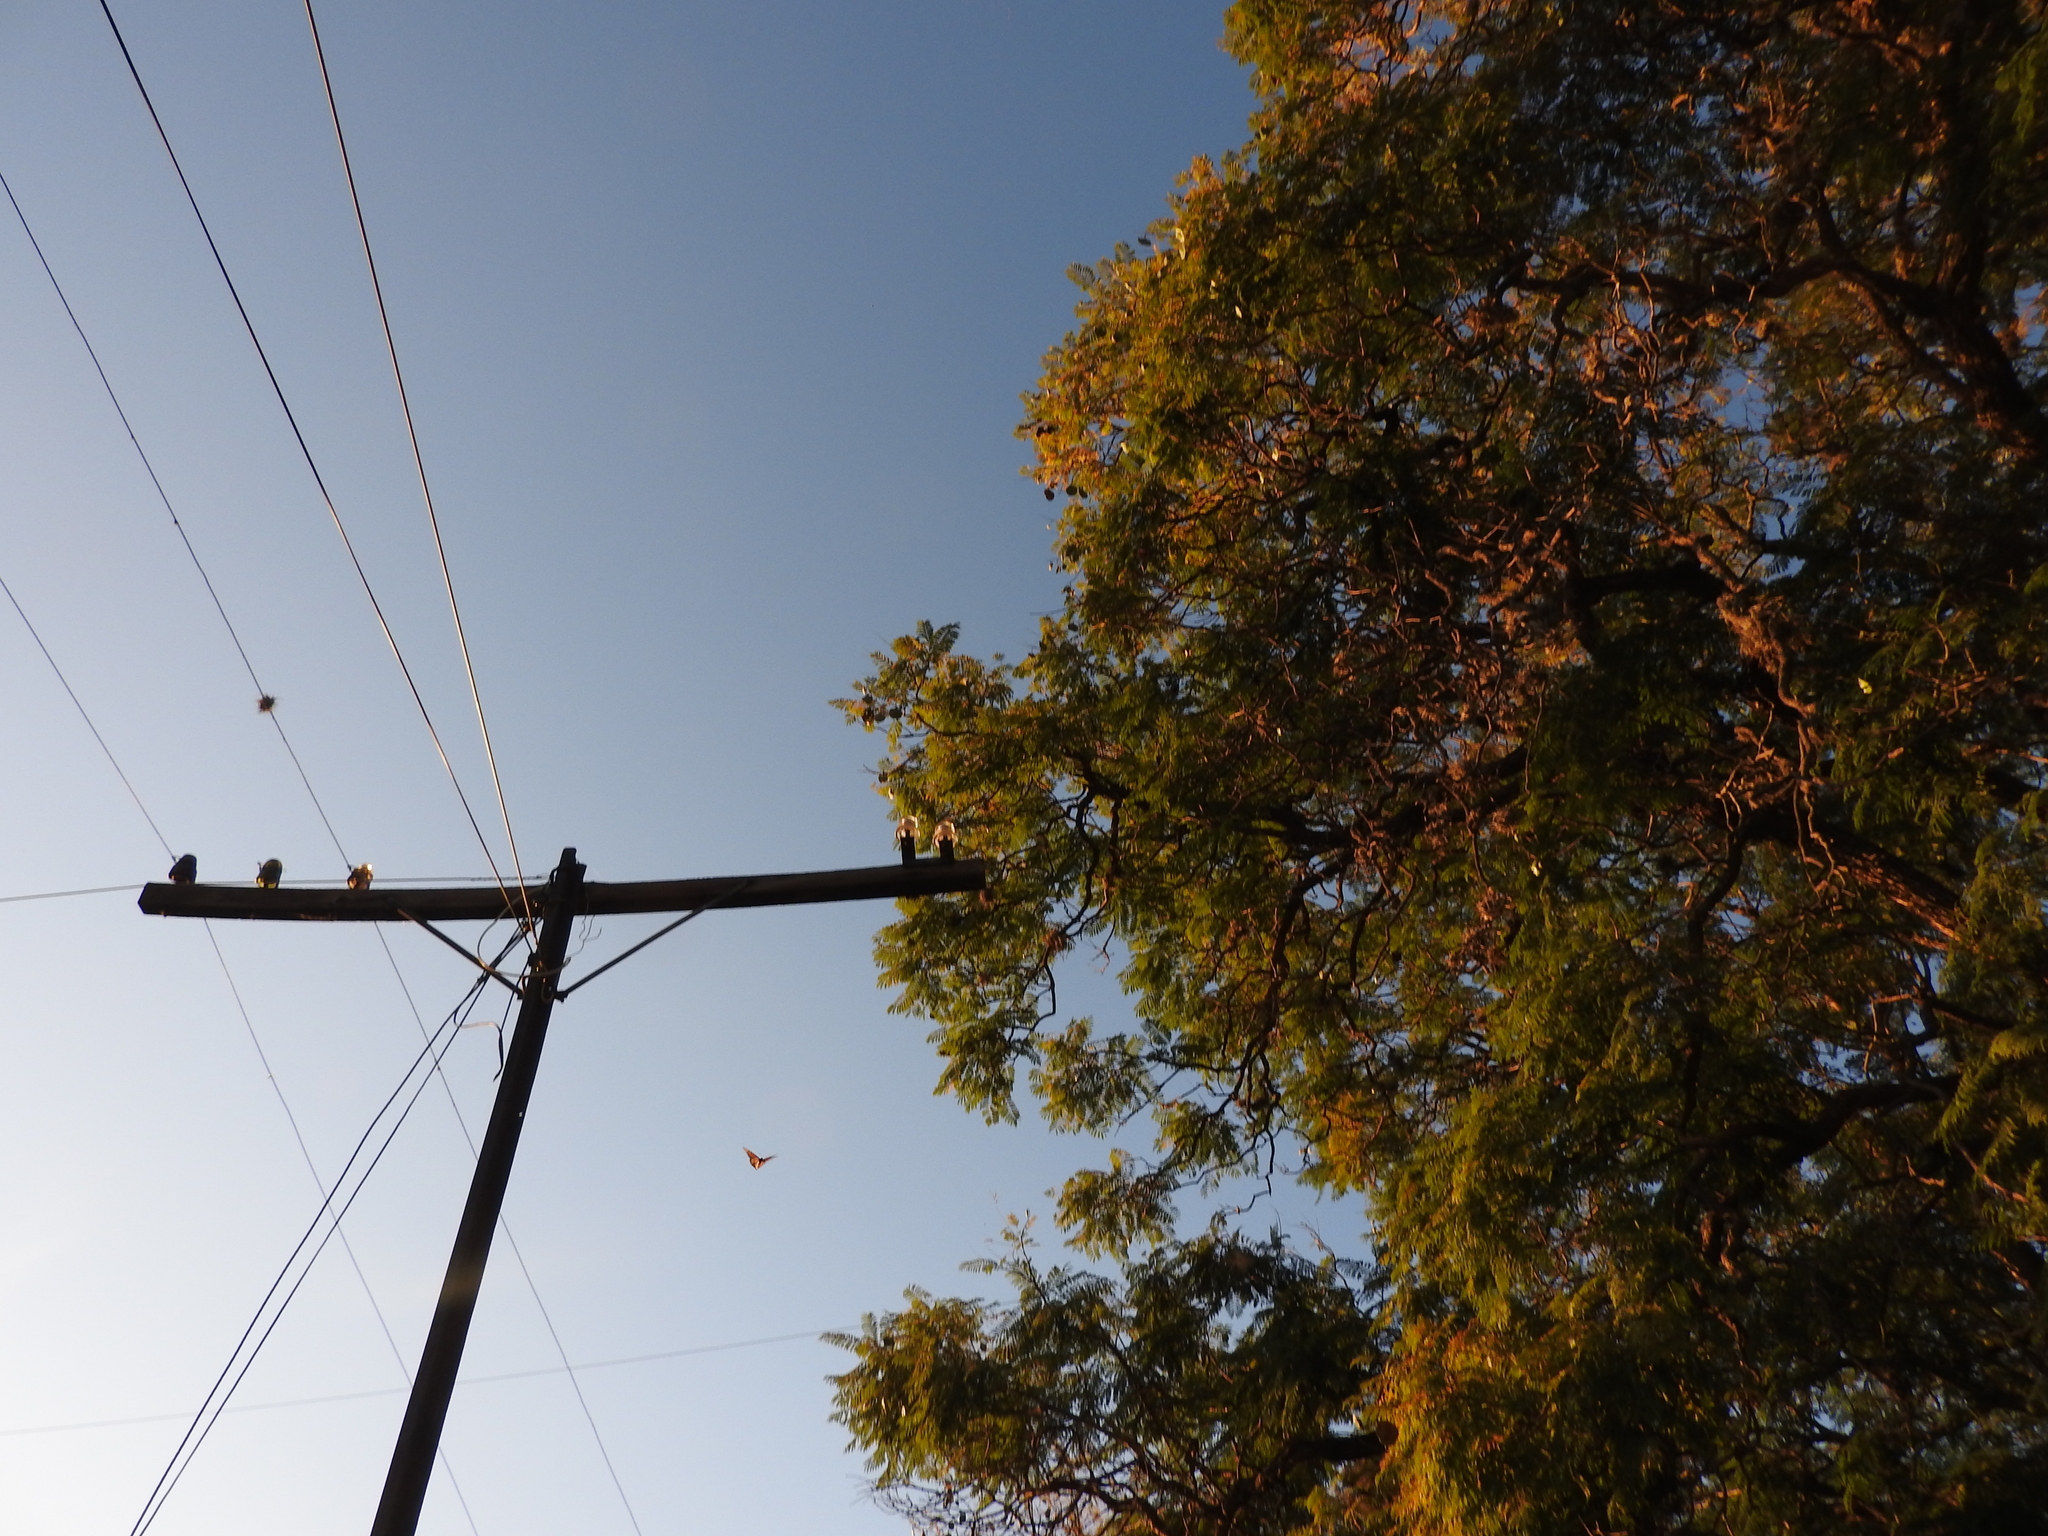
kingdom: Animalia
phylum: Arthropoda
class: Insecta
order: Lepidoptera
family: Nymphalidae
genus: Danaus
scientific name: Danaus plexippus
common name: Monarch
